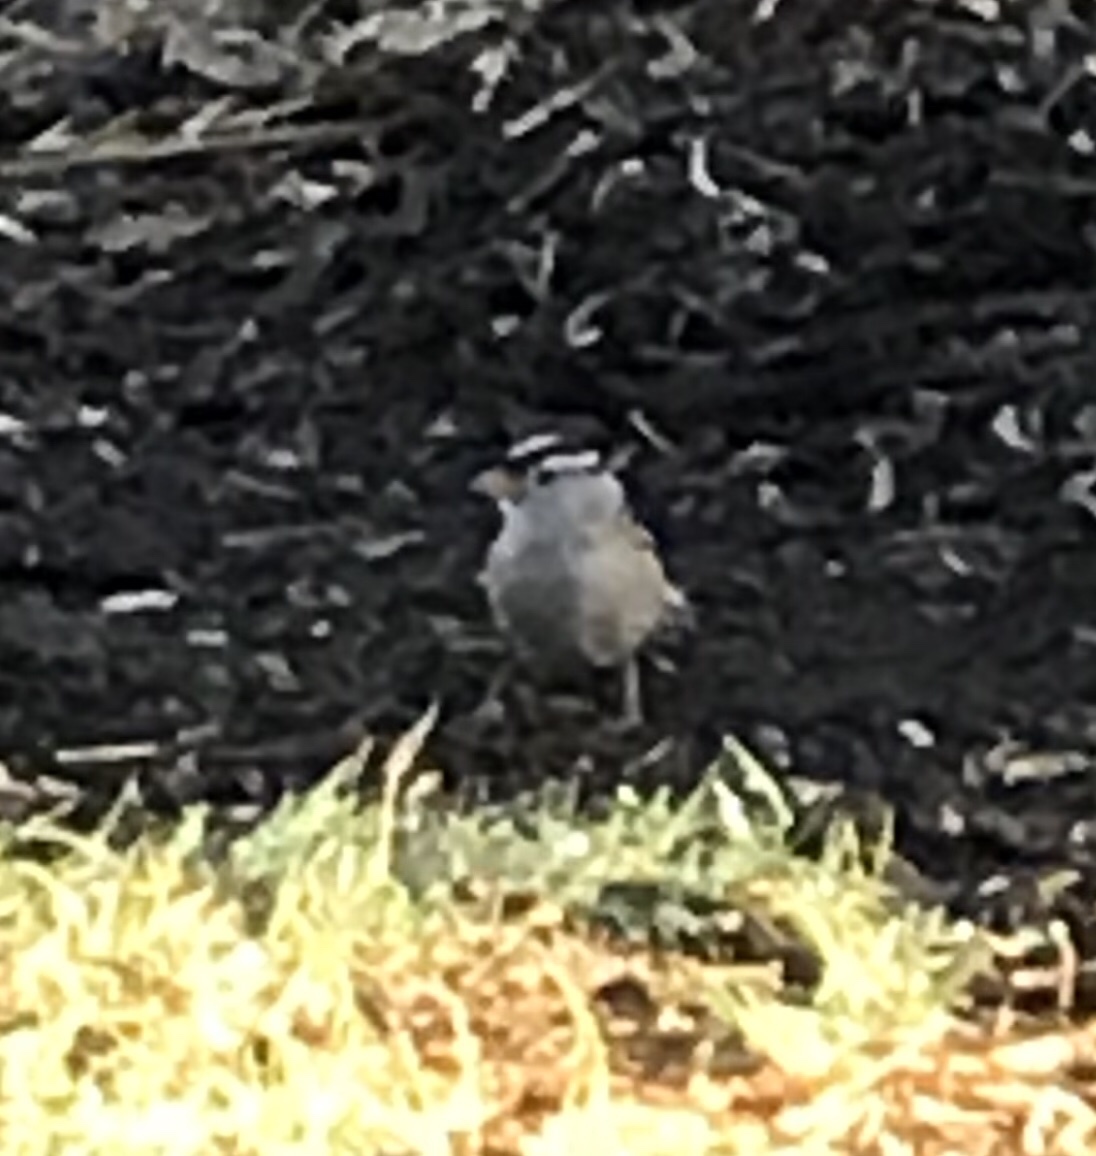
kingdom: Animalia
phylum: Chordata
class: Aves
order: Passeriformes
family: Passerellidae
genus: Zonotrichia
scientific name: Zonotrichia leucophrys
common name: White-crowned sparrow
